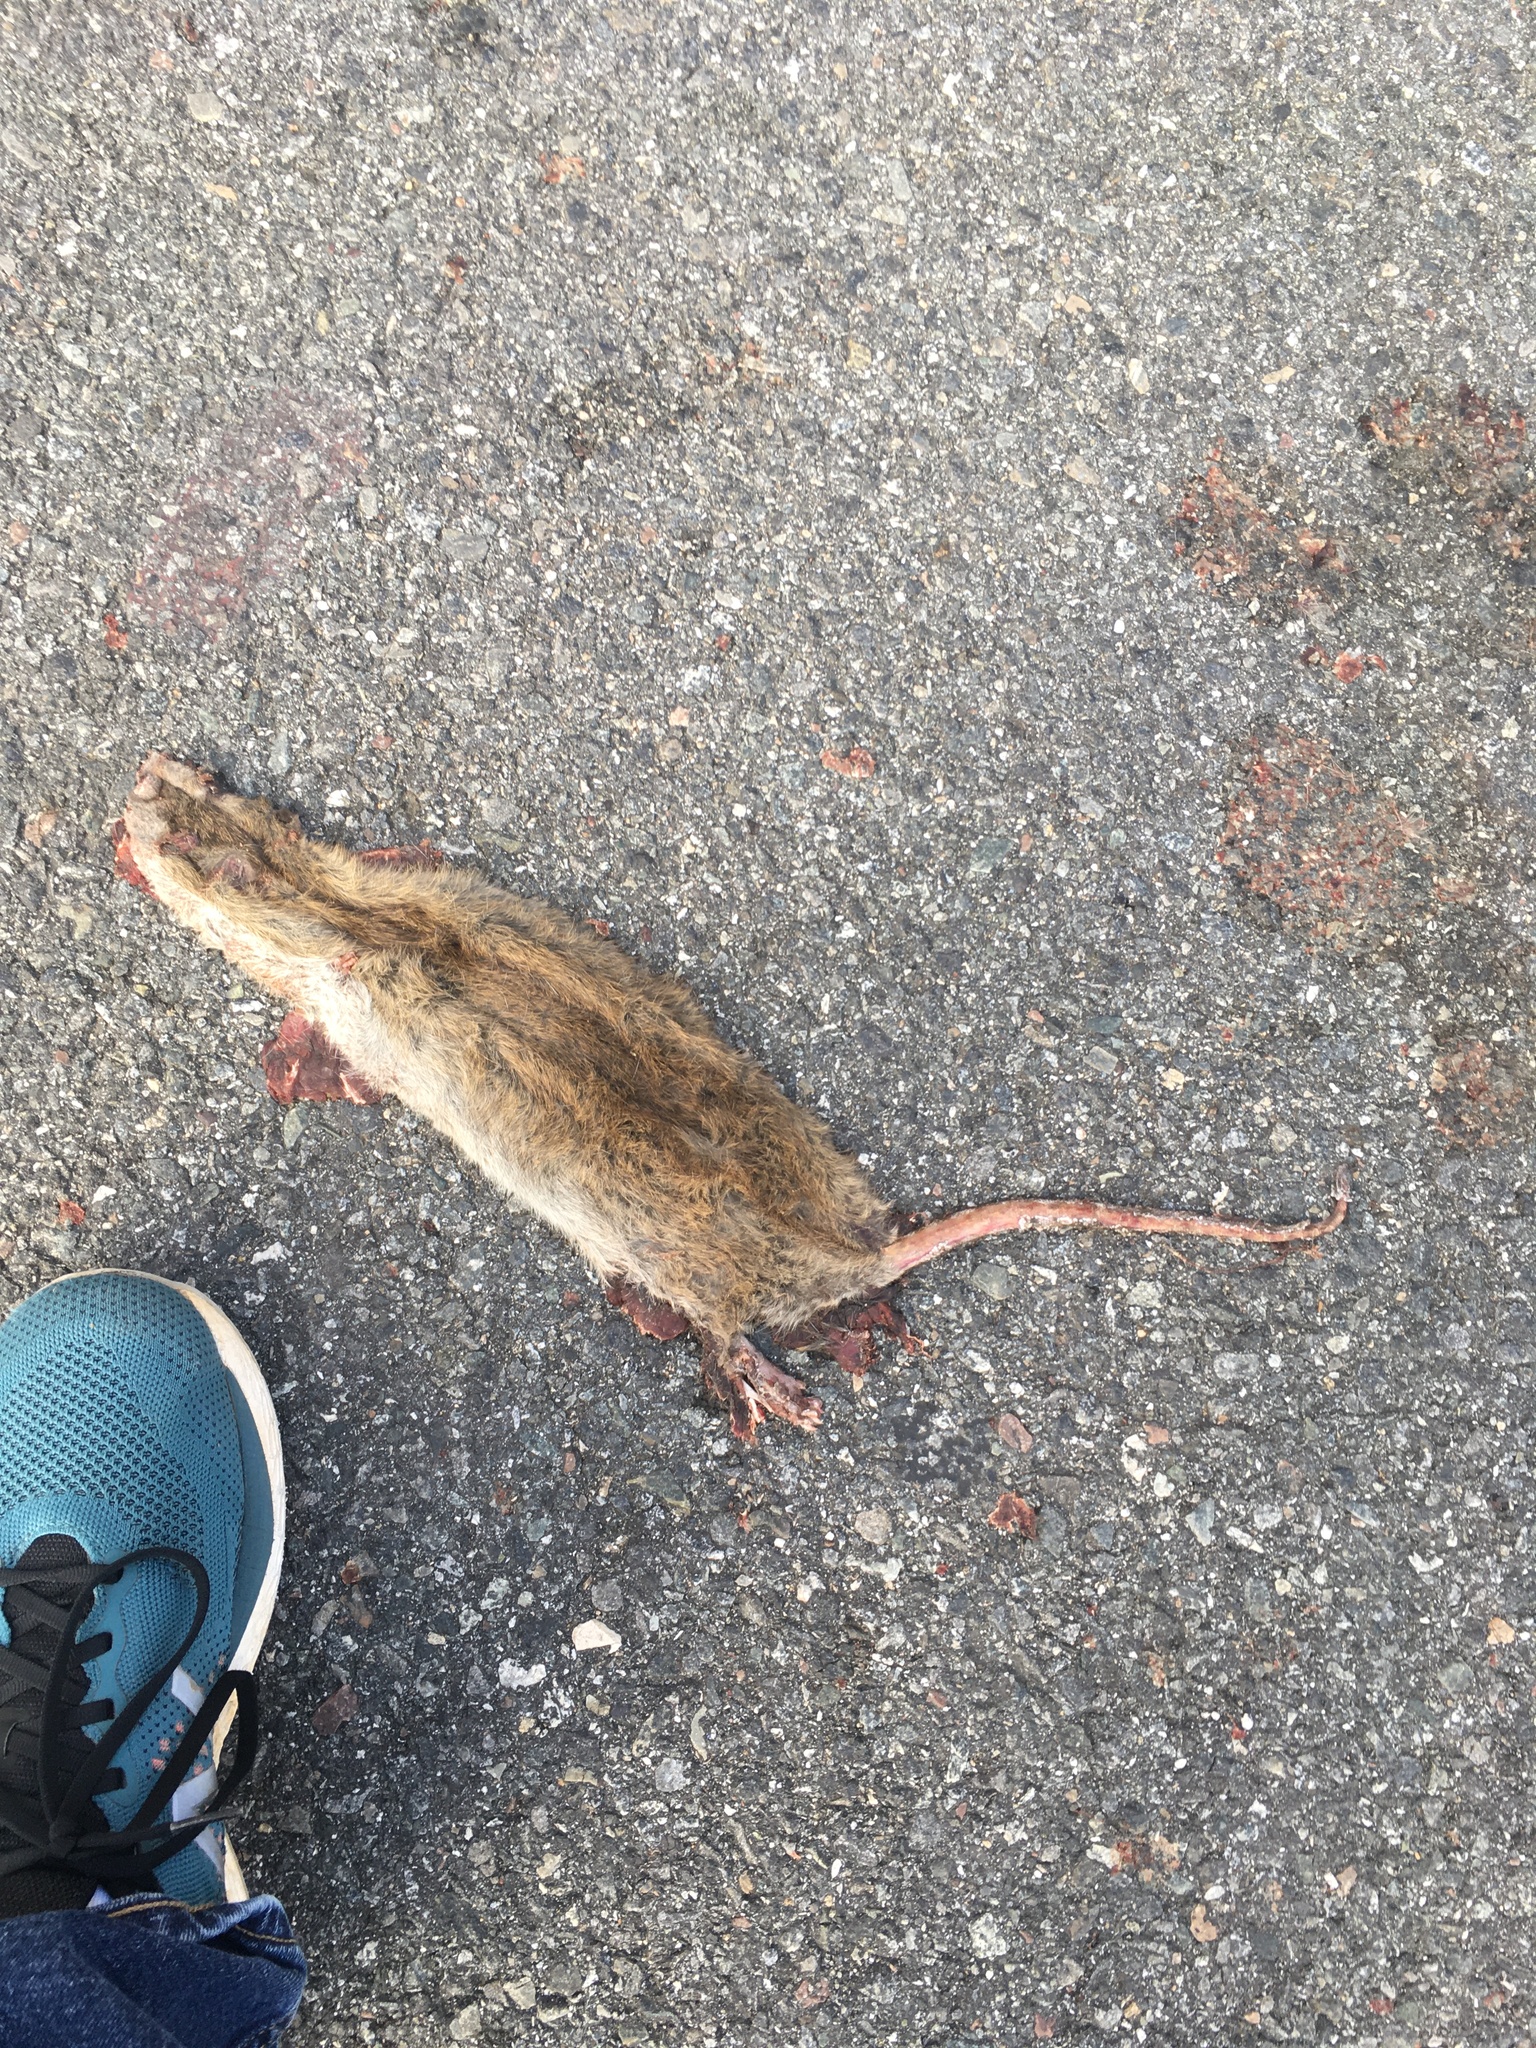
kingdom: Animalia
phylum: Chordata
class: Mammalia
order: Rodentia
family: Muridae
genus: Rattus
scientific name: Rattus norvegicus
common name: Brown rat
